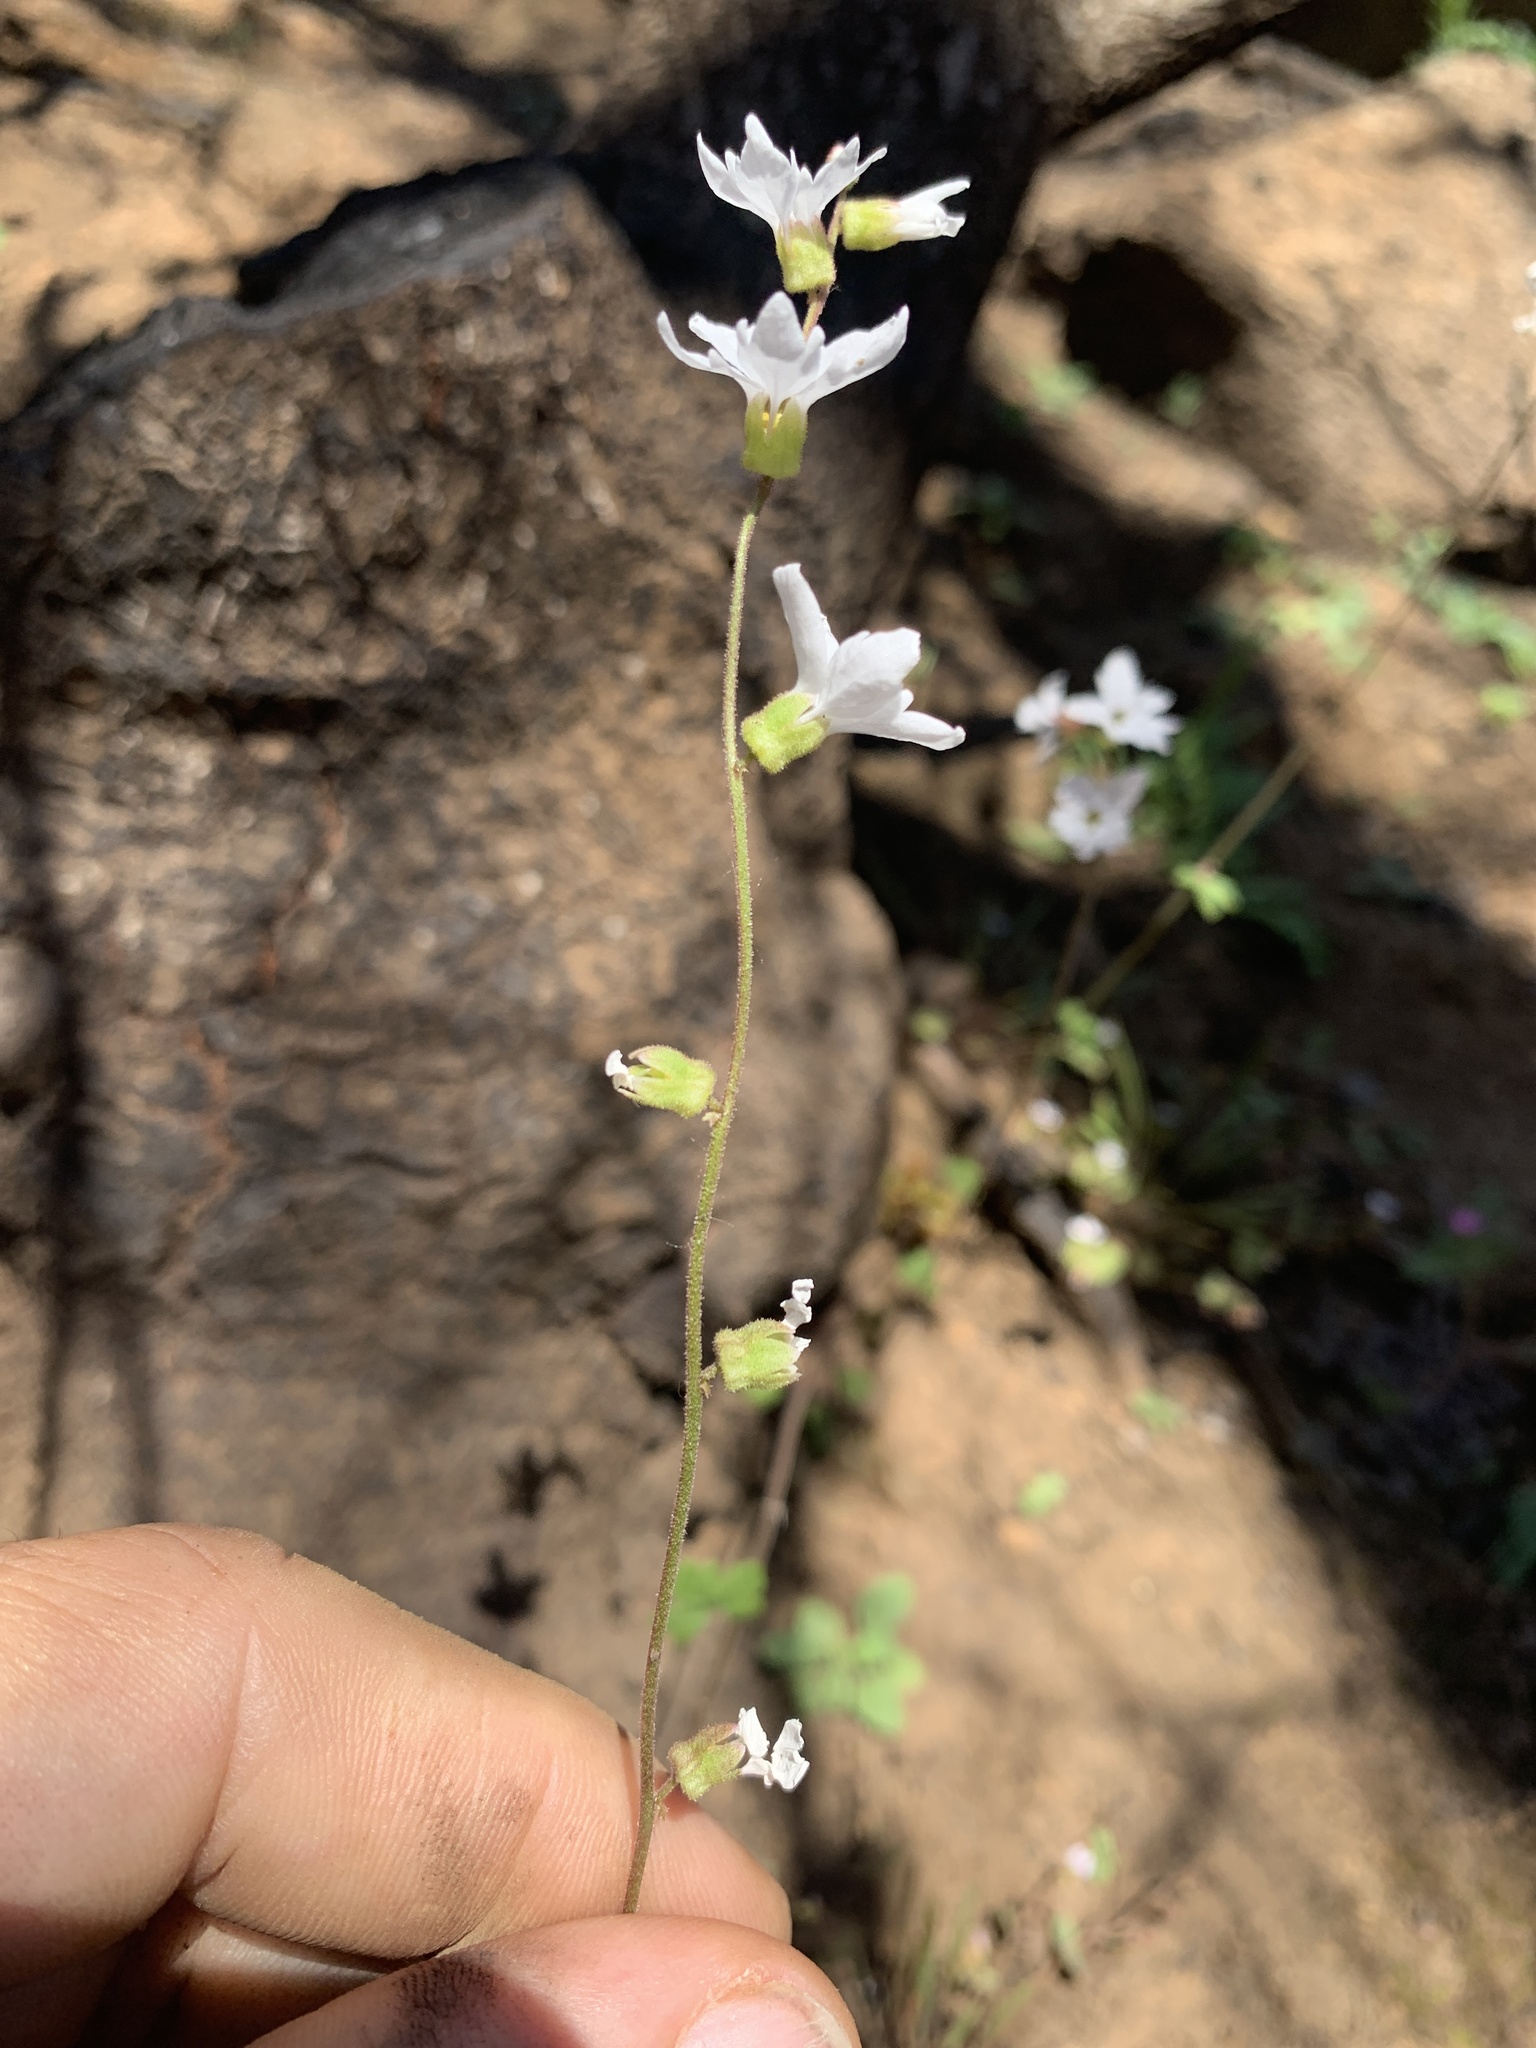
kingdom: Plantae
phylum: Tracheophyta
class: Magnoliopsida
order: Saxifragales
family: Saxifragaceae
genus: Lithophragma
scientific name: Lithophragma heterophyllum
